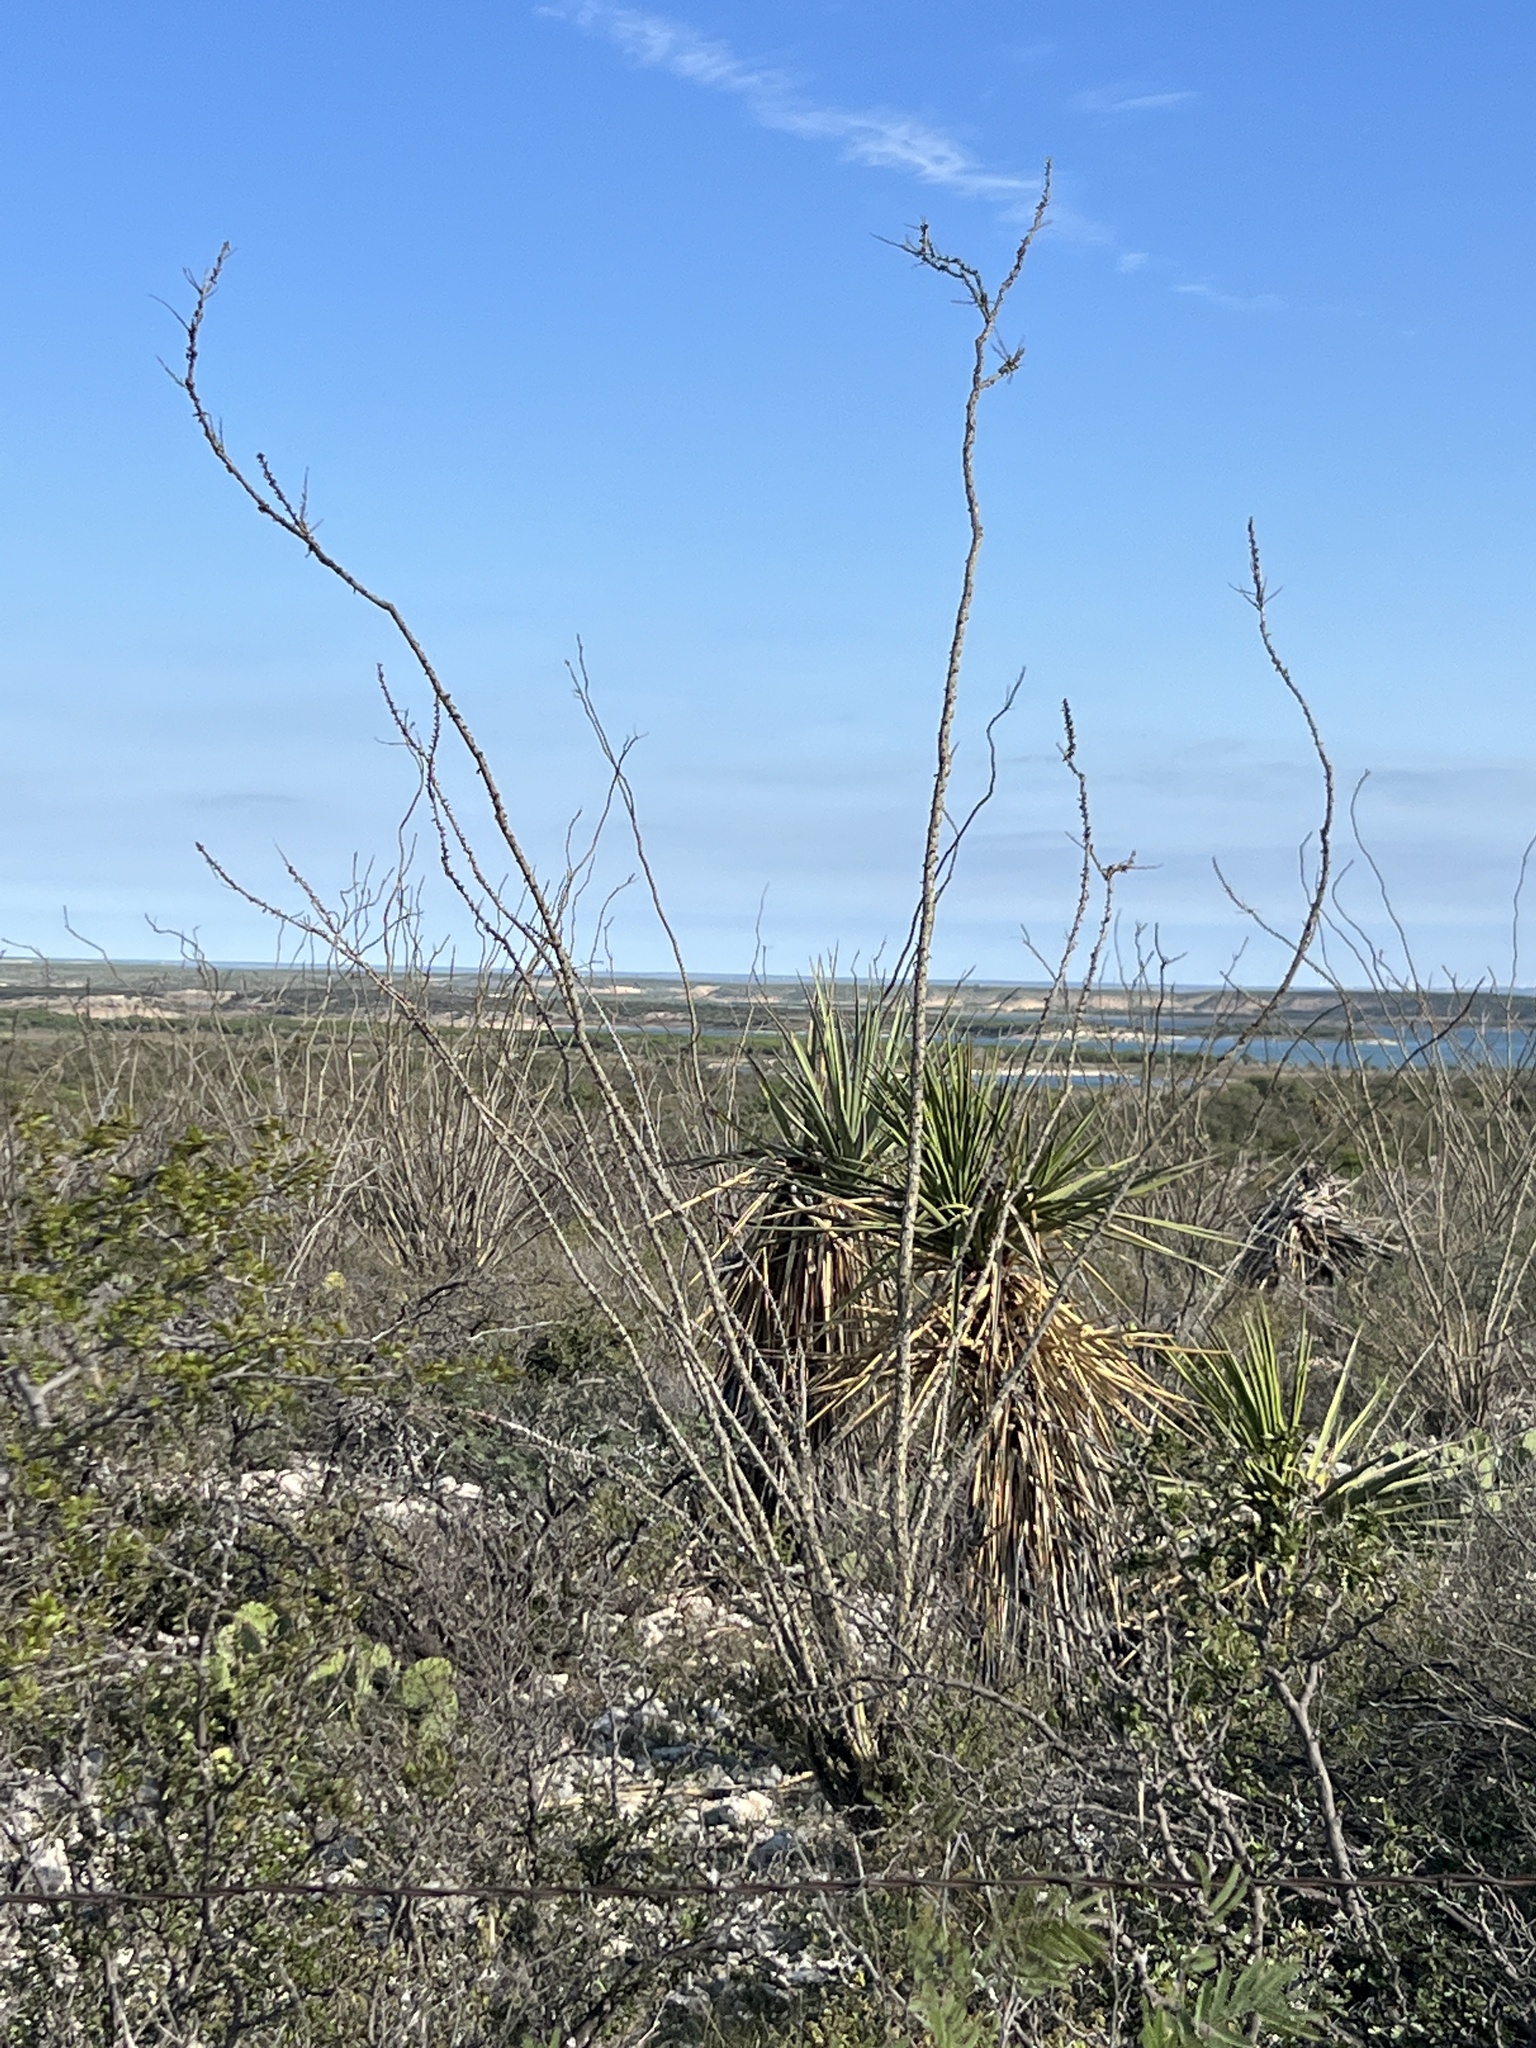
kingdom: Plantae
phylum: Tracheophyta
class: Magnoliopsida
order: Ericales
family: Fouquieriaceae
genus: Fouquieria
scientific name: Fouquieria splendens
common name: Vine-cactus
